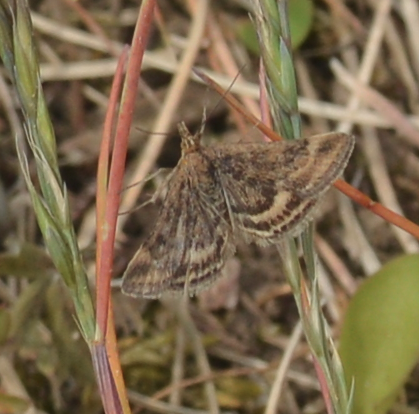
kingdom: Animalia
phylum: Arthropoda
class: Insecta
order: Lepidoptera
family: Crambidae
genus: Pyrausta
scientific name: Pyrausta despicata
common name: Straw-barred pearl
